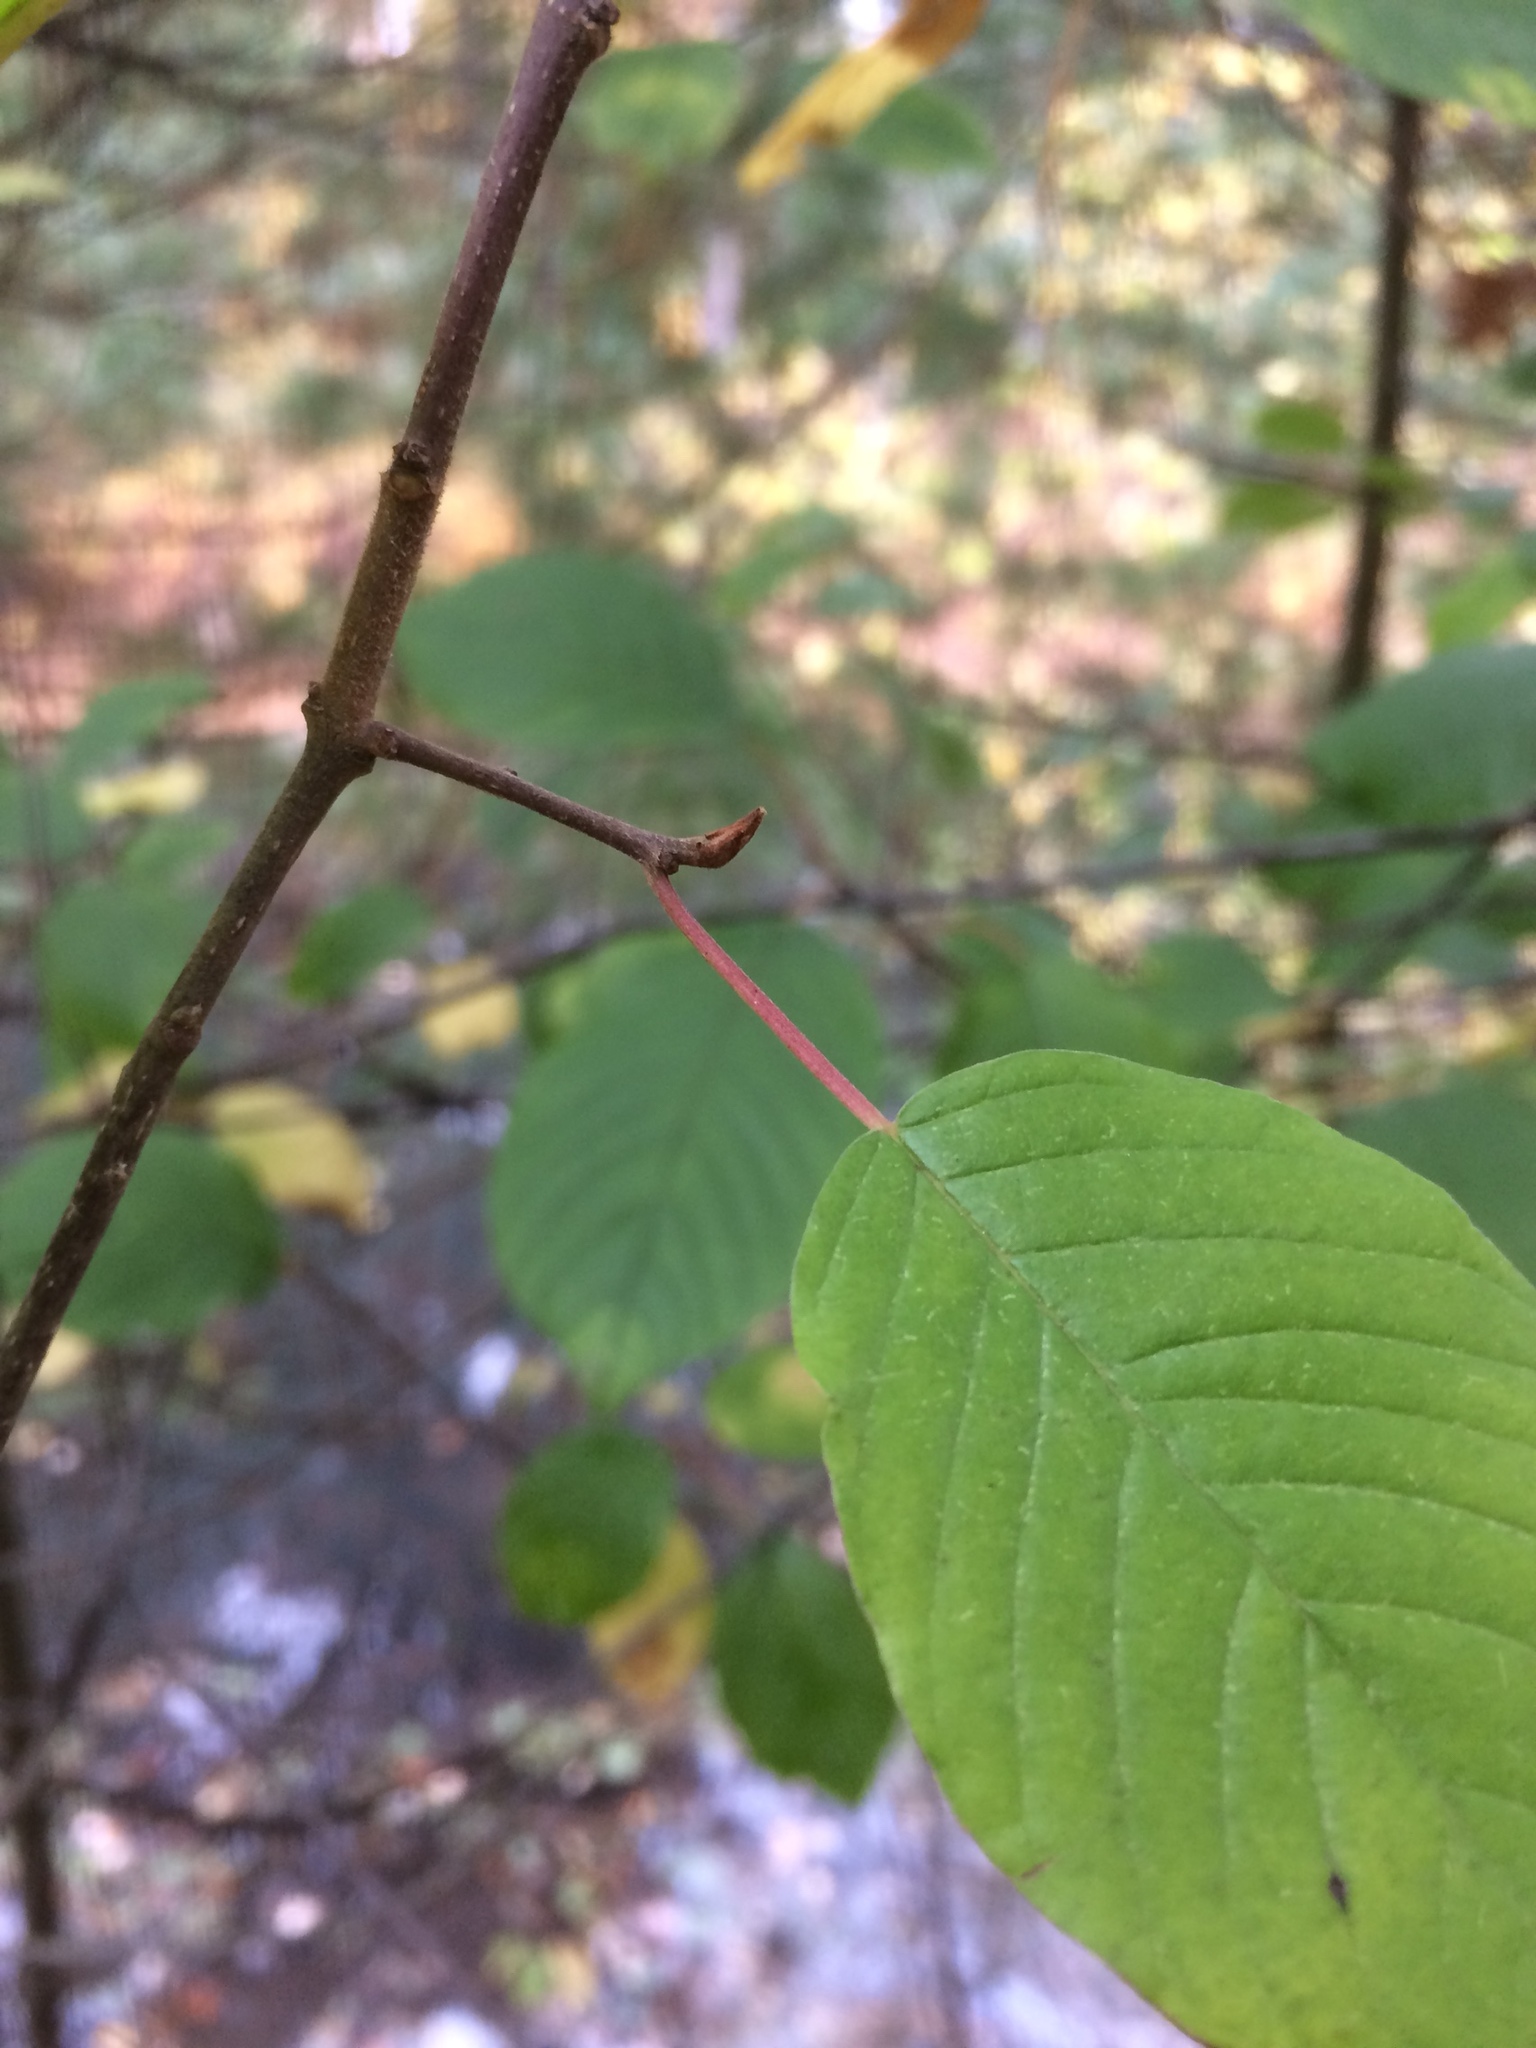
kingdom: Plantae
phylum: Tracheophyta
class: Magnoliopsida
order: Rosales
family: Rhamnaceae
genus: Frangula
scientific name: Frangula alnus
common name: Alder buckthorn
